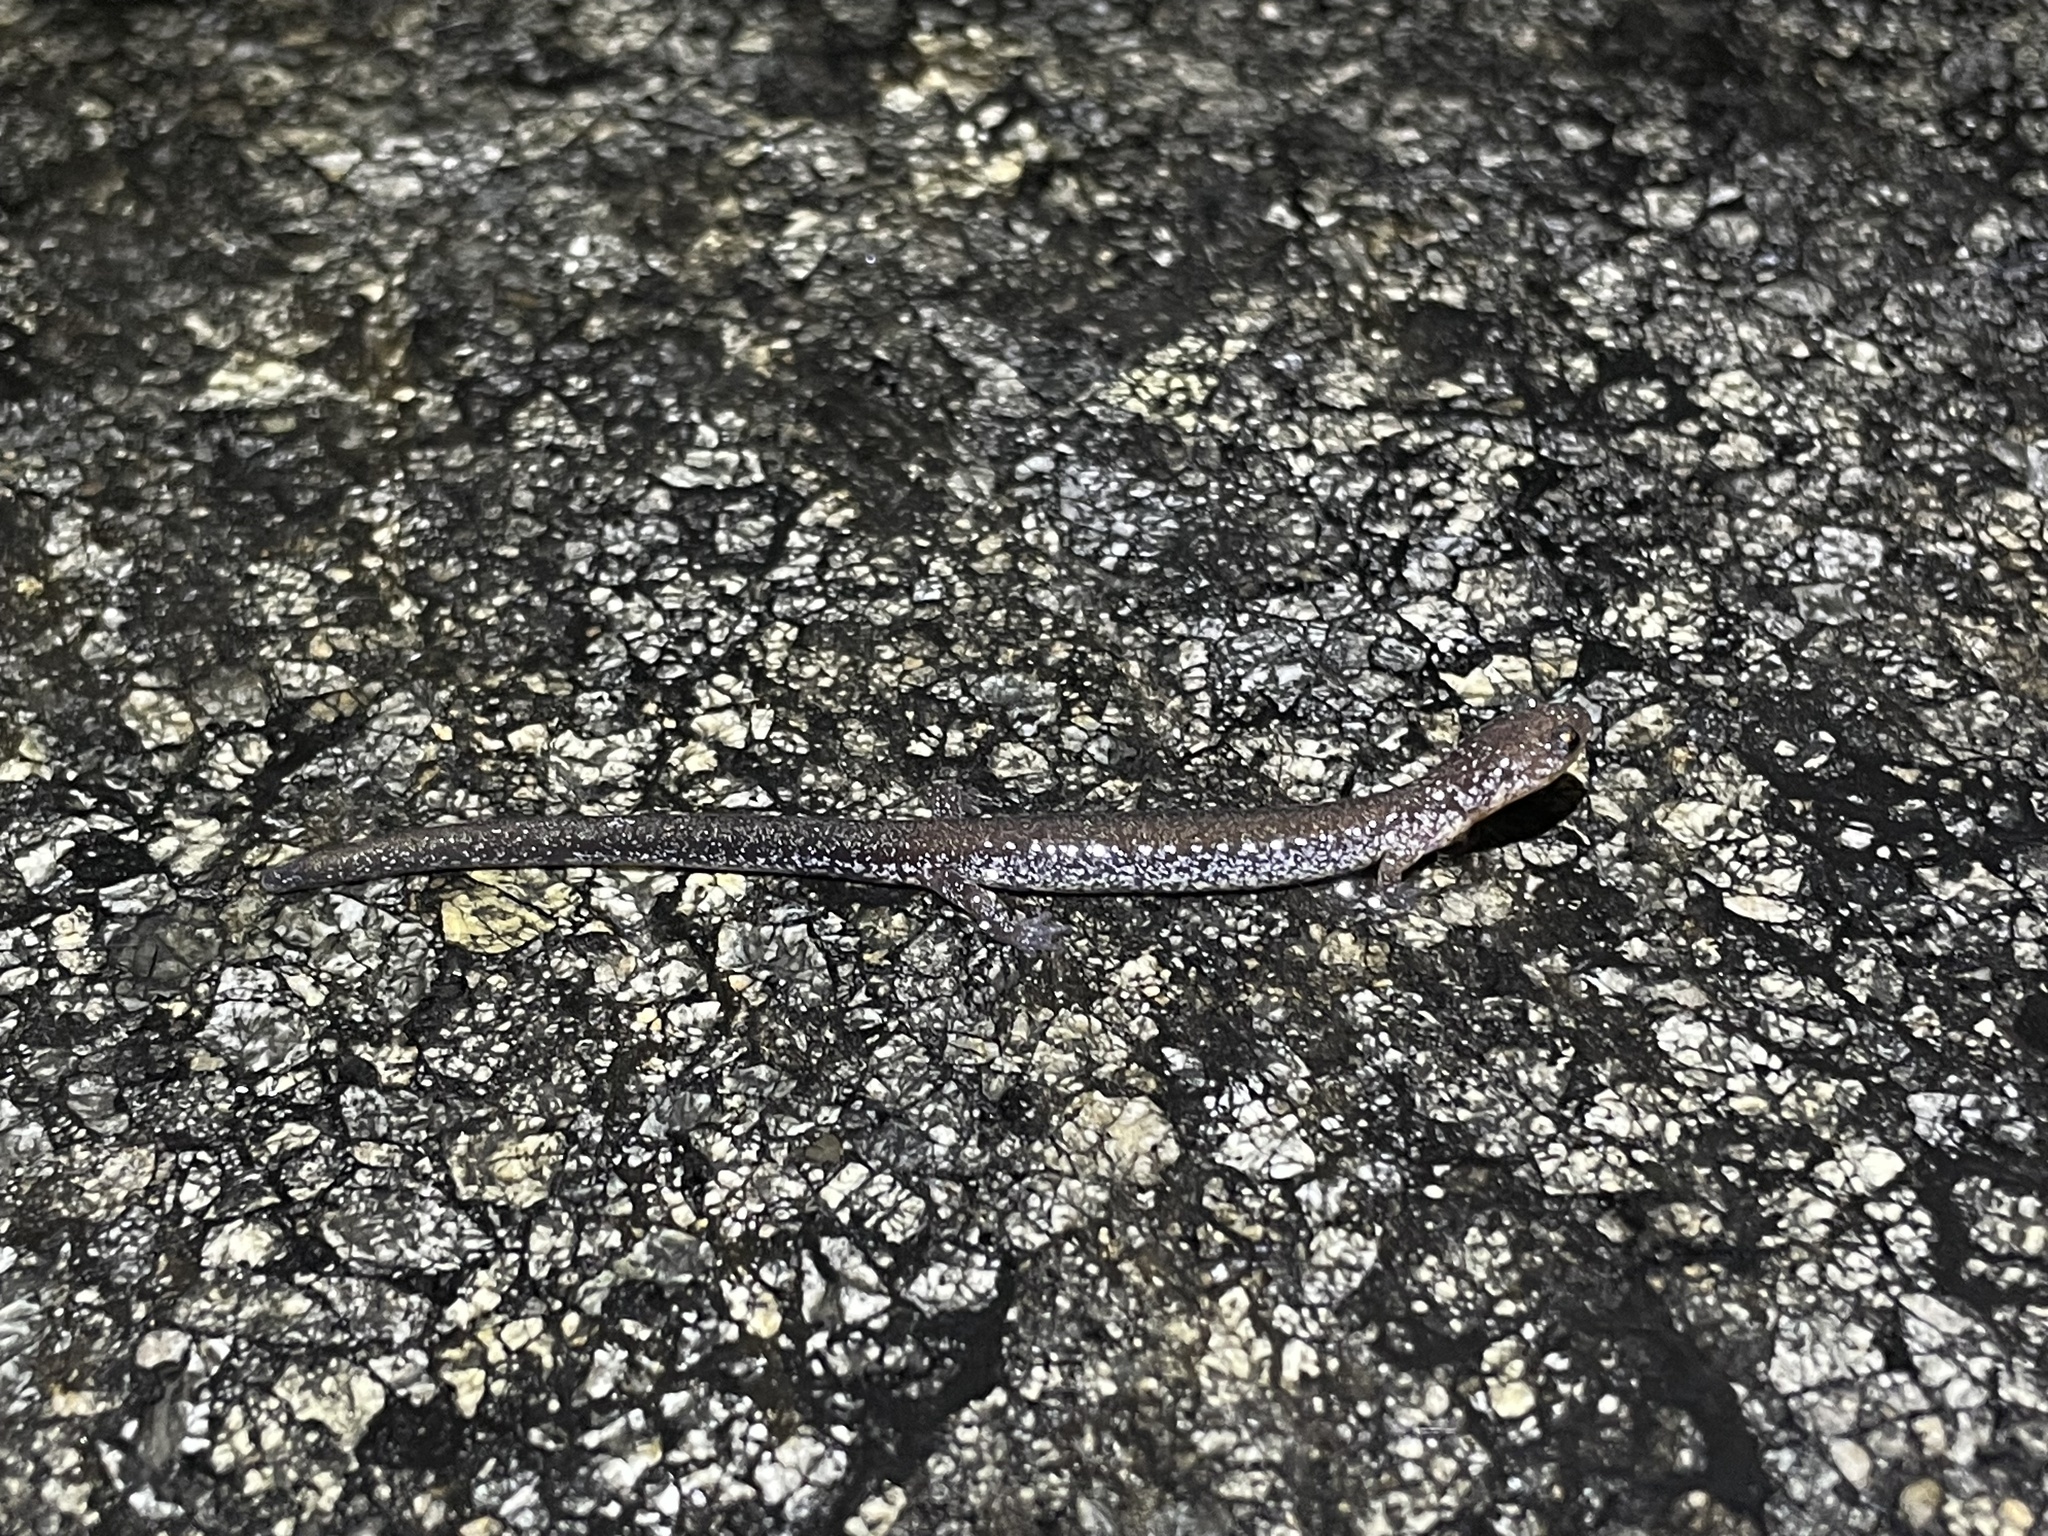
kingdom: Animalia
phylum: Chordata
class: Amphibia
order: Caudata
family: Plethodontidae
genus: Plethodon
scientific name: Plethodon cinereus
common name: Redback salamander
